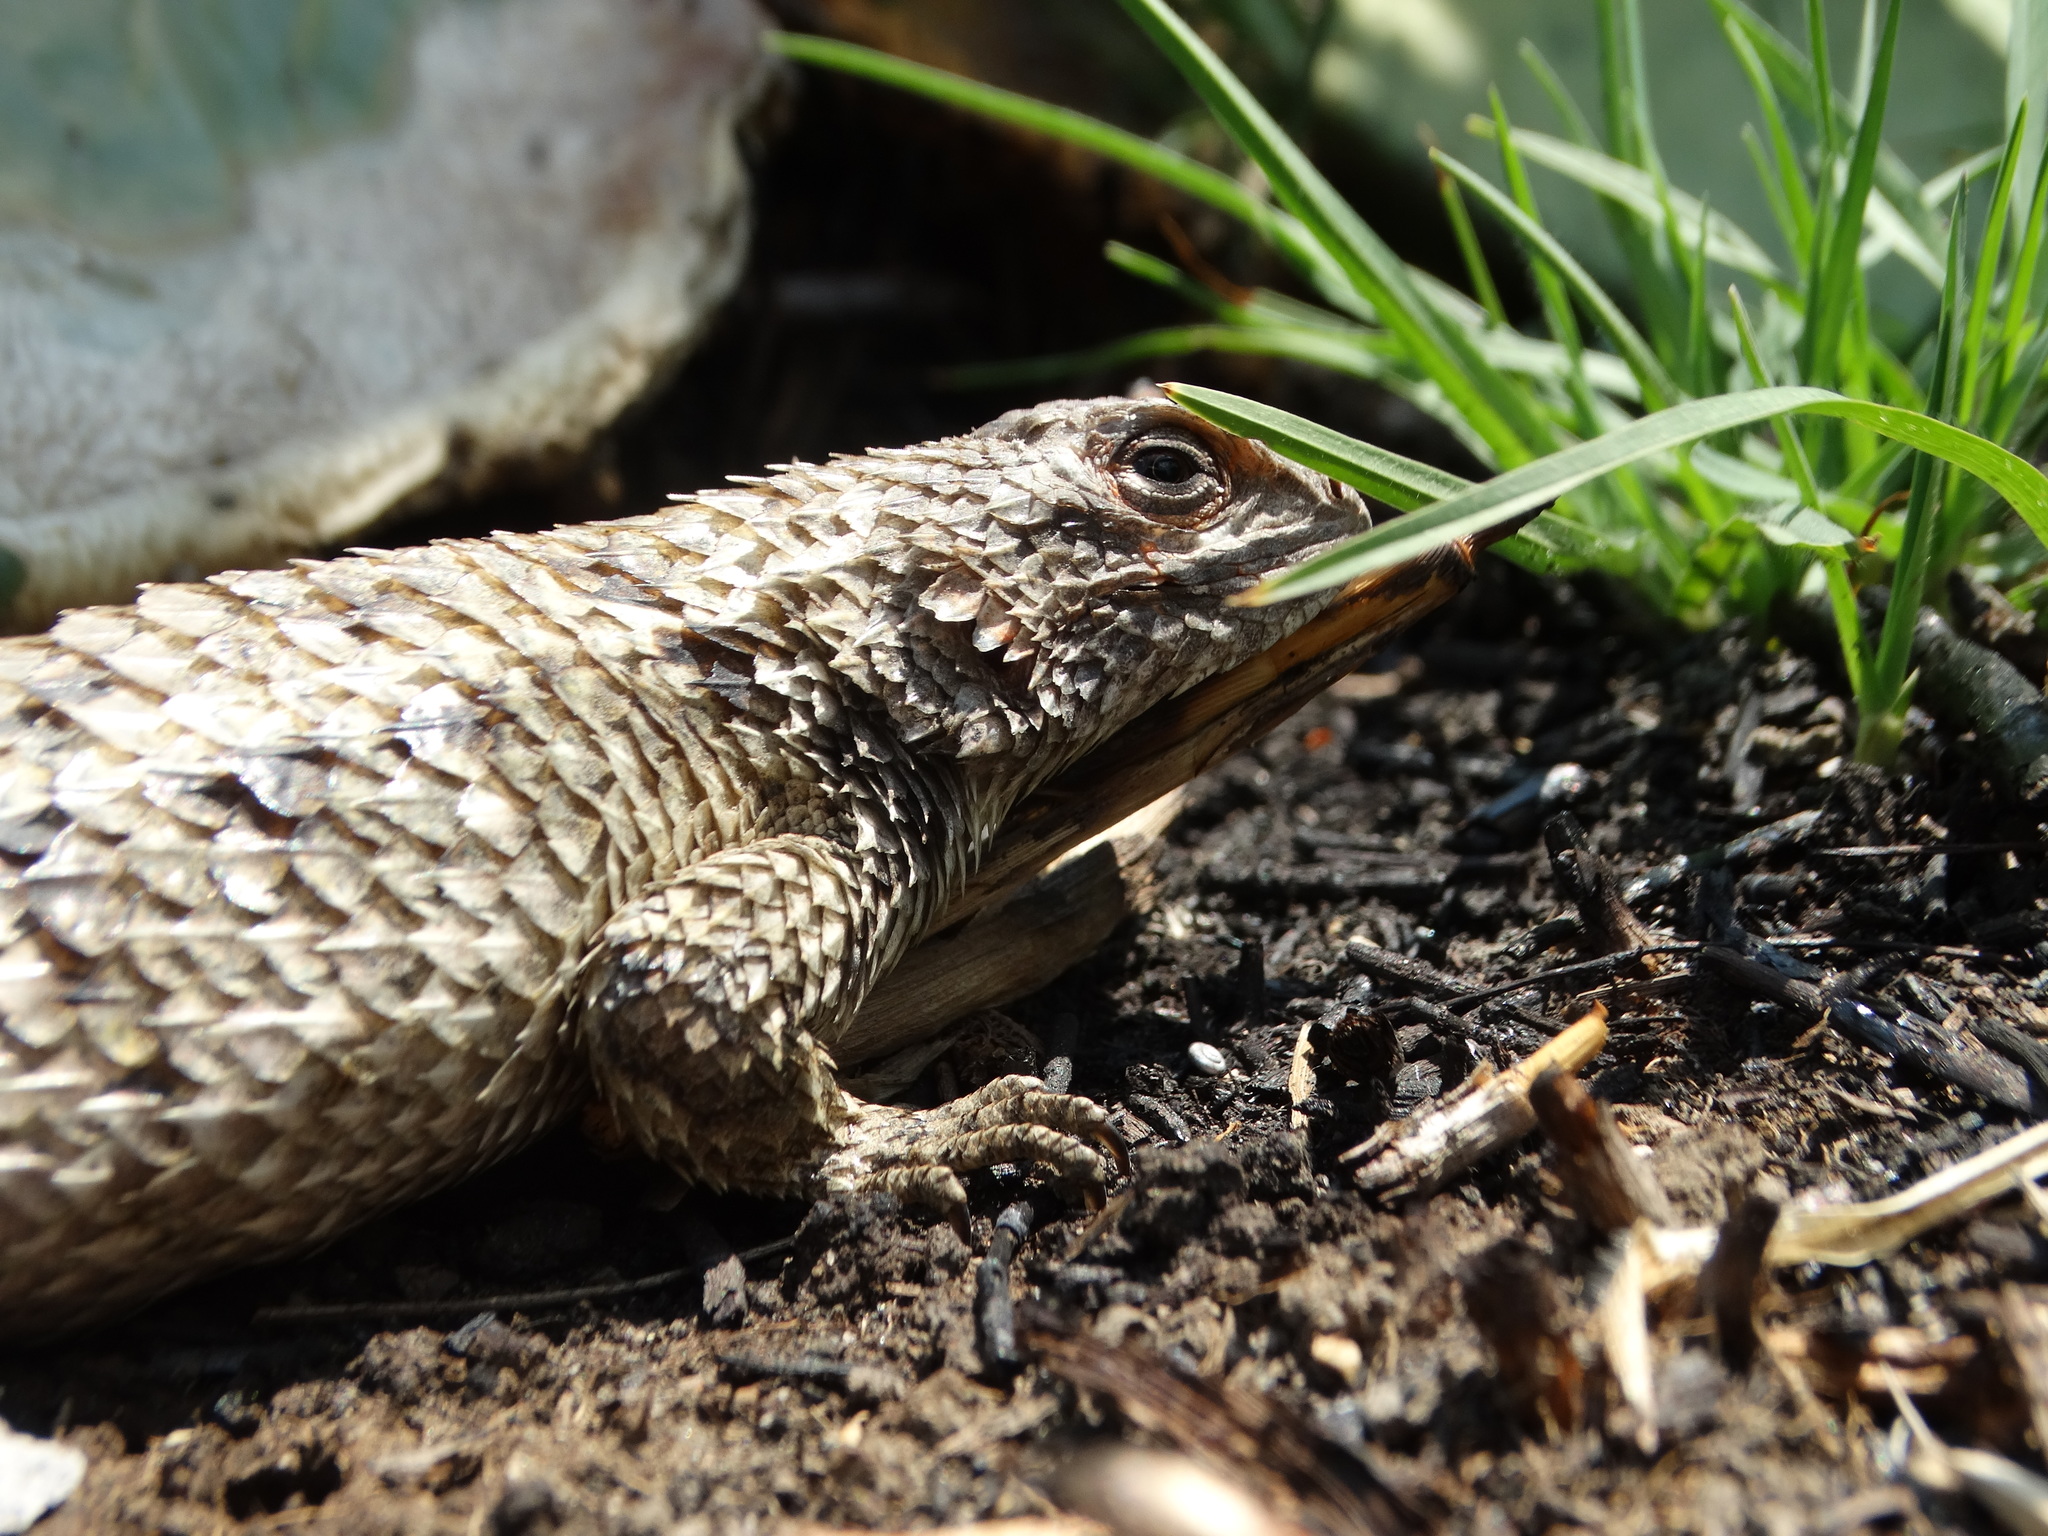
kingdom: Animalia
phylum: Chordata
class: Squamata
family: Phrynosomatidae
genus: Sceloporus
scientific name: Sceloporus spinosus
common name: Blue-spotted spiny lizard [caeruleopunctatus]
